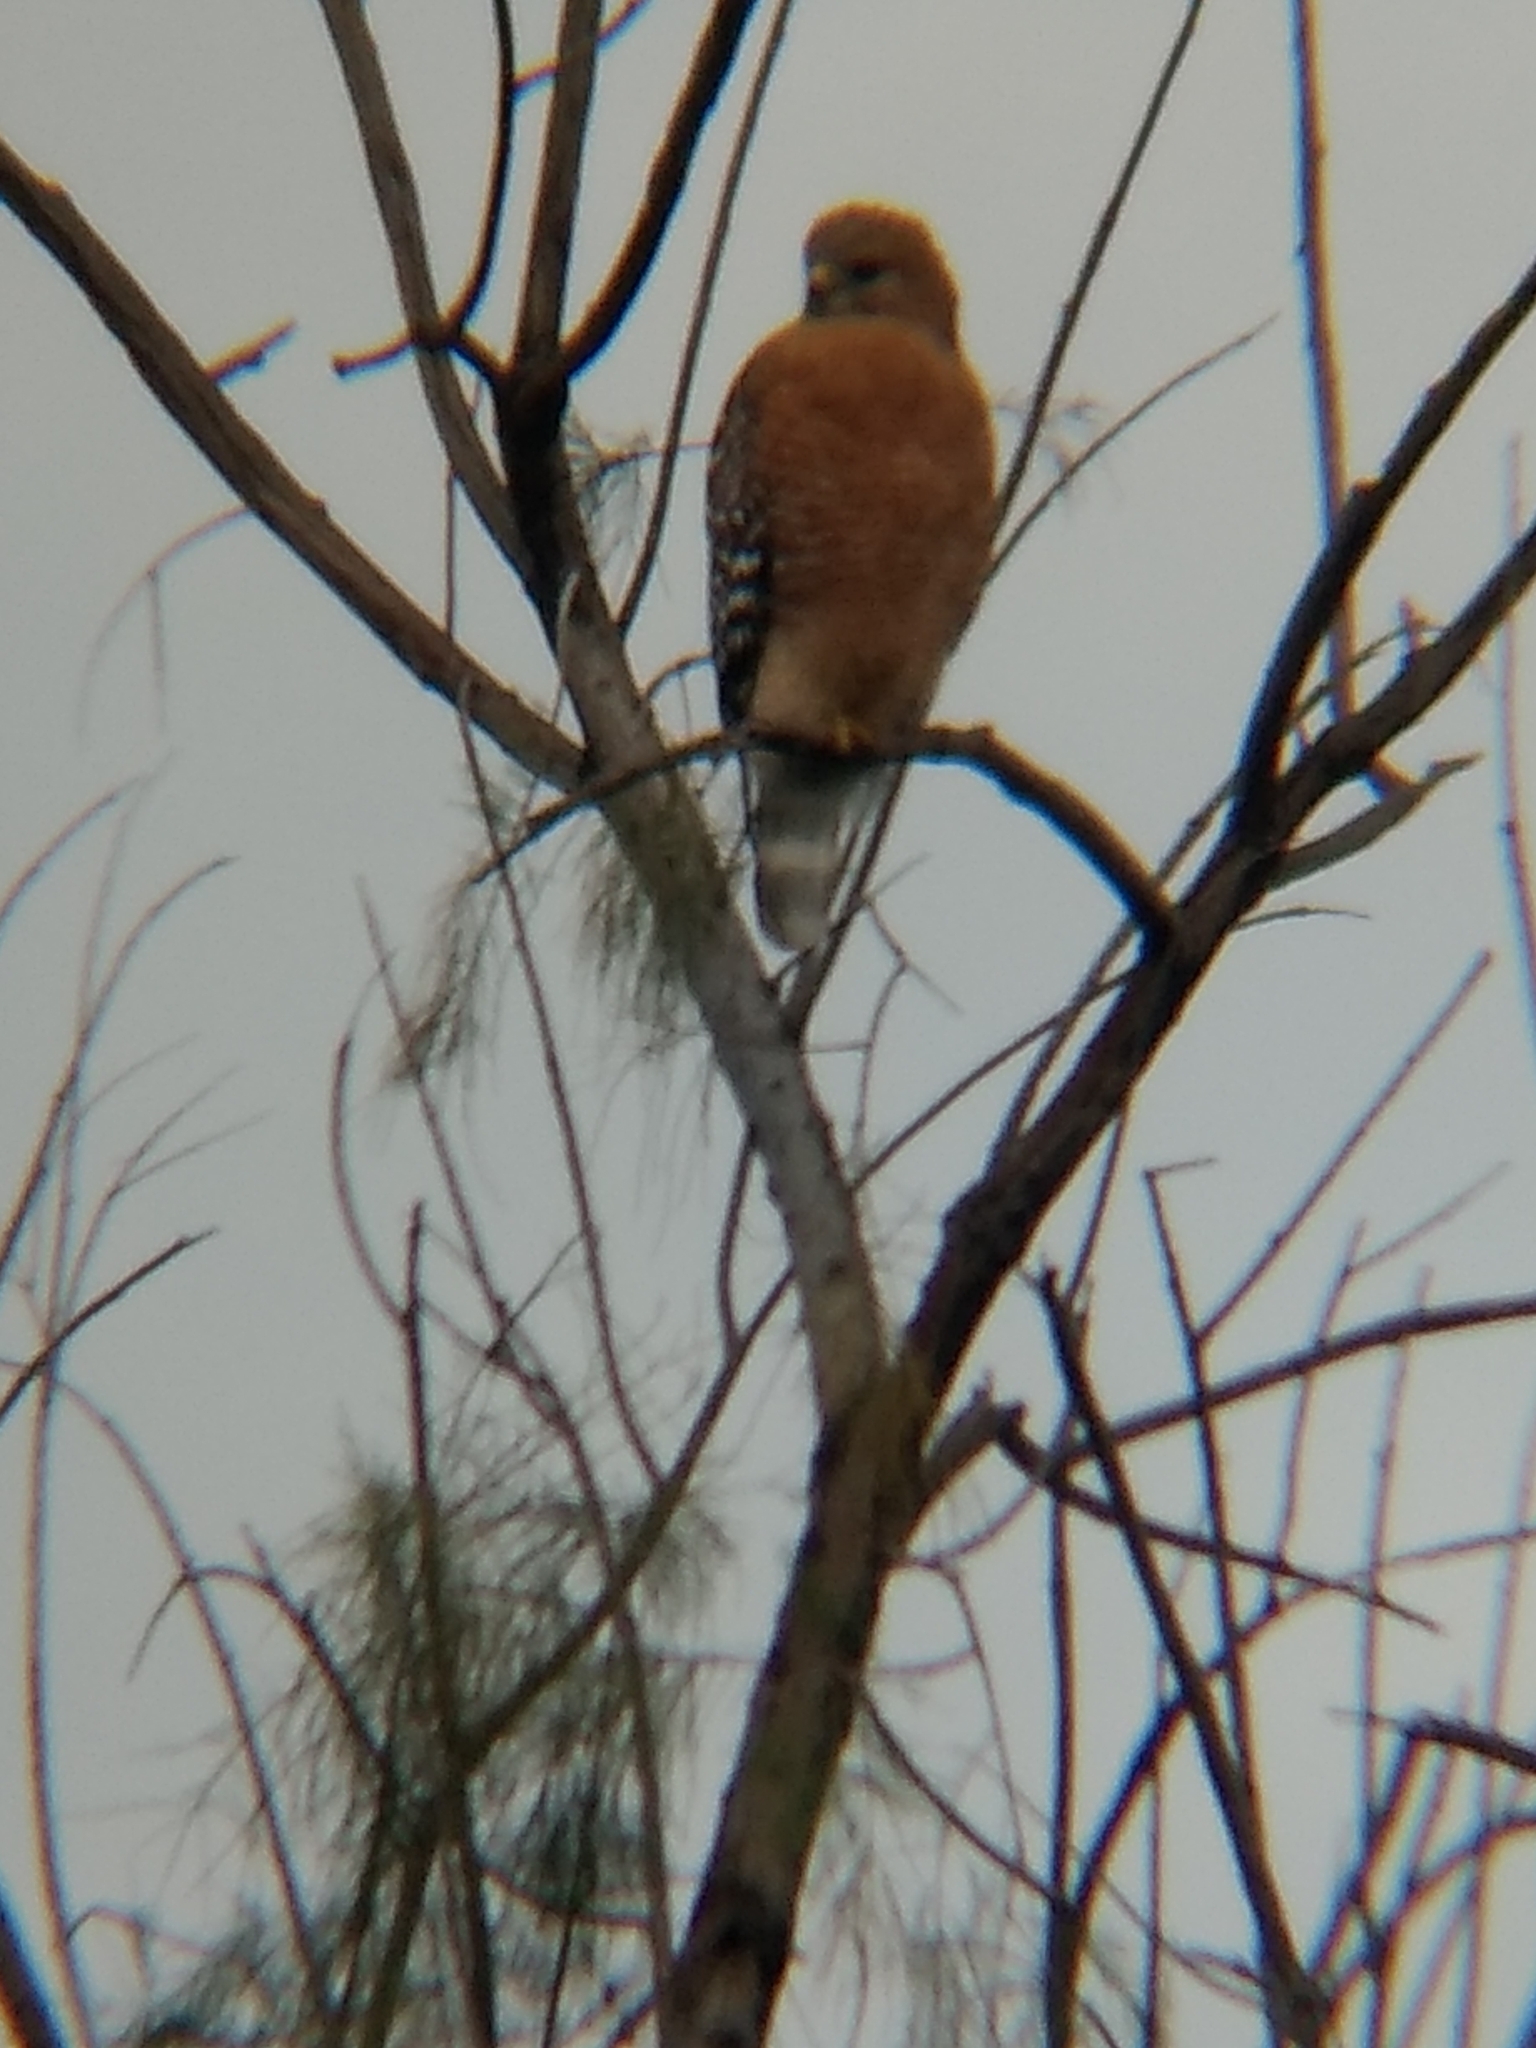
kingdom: Animalia
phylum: Chordata
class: Aves
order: Accipitriformes
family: Accipitridae
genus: Buteo
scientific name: Buteo lineatus
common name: Red-shouldered hawk
